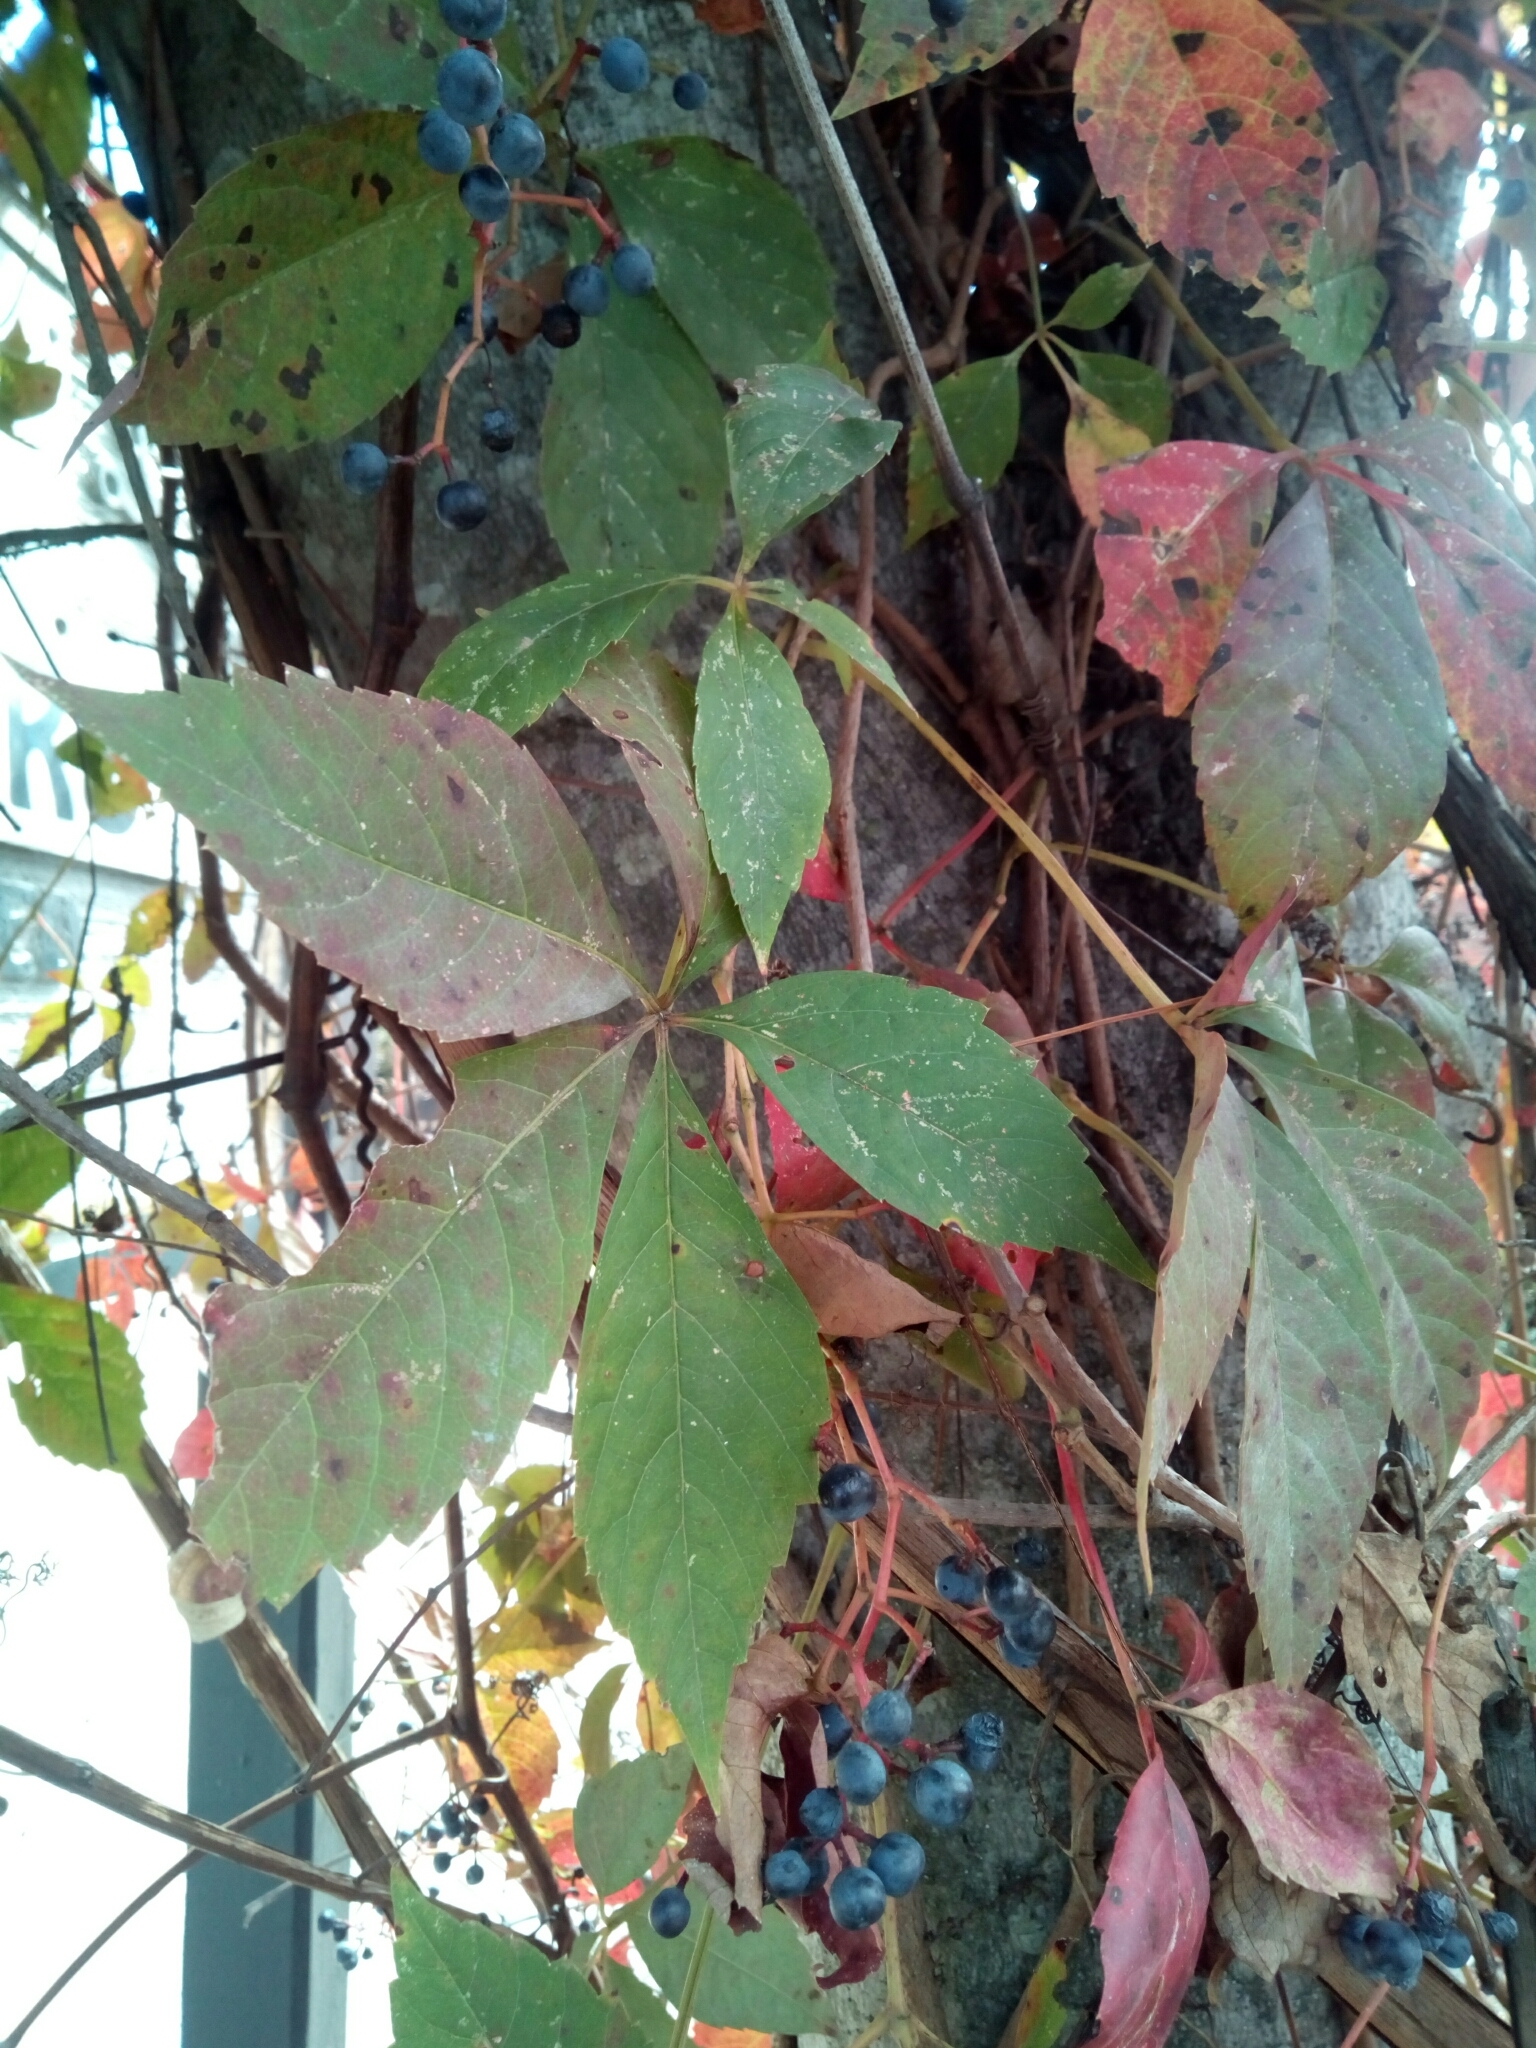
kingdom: Plantae
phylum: Tracheophyta
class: Magnoliopsida
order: Vitales
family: Vitaceae
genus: Parthenocissus
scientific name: Parthenocissus quinquefolia
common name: Virginia-creeper
